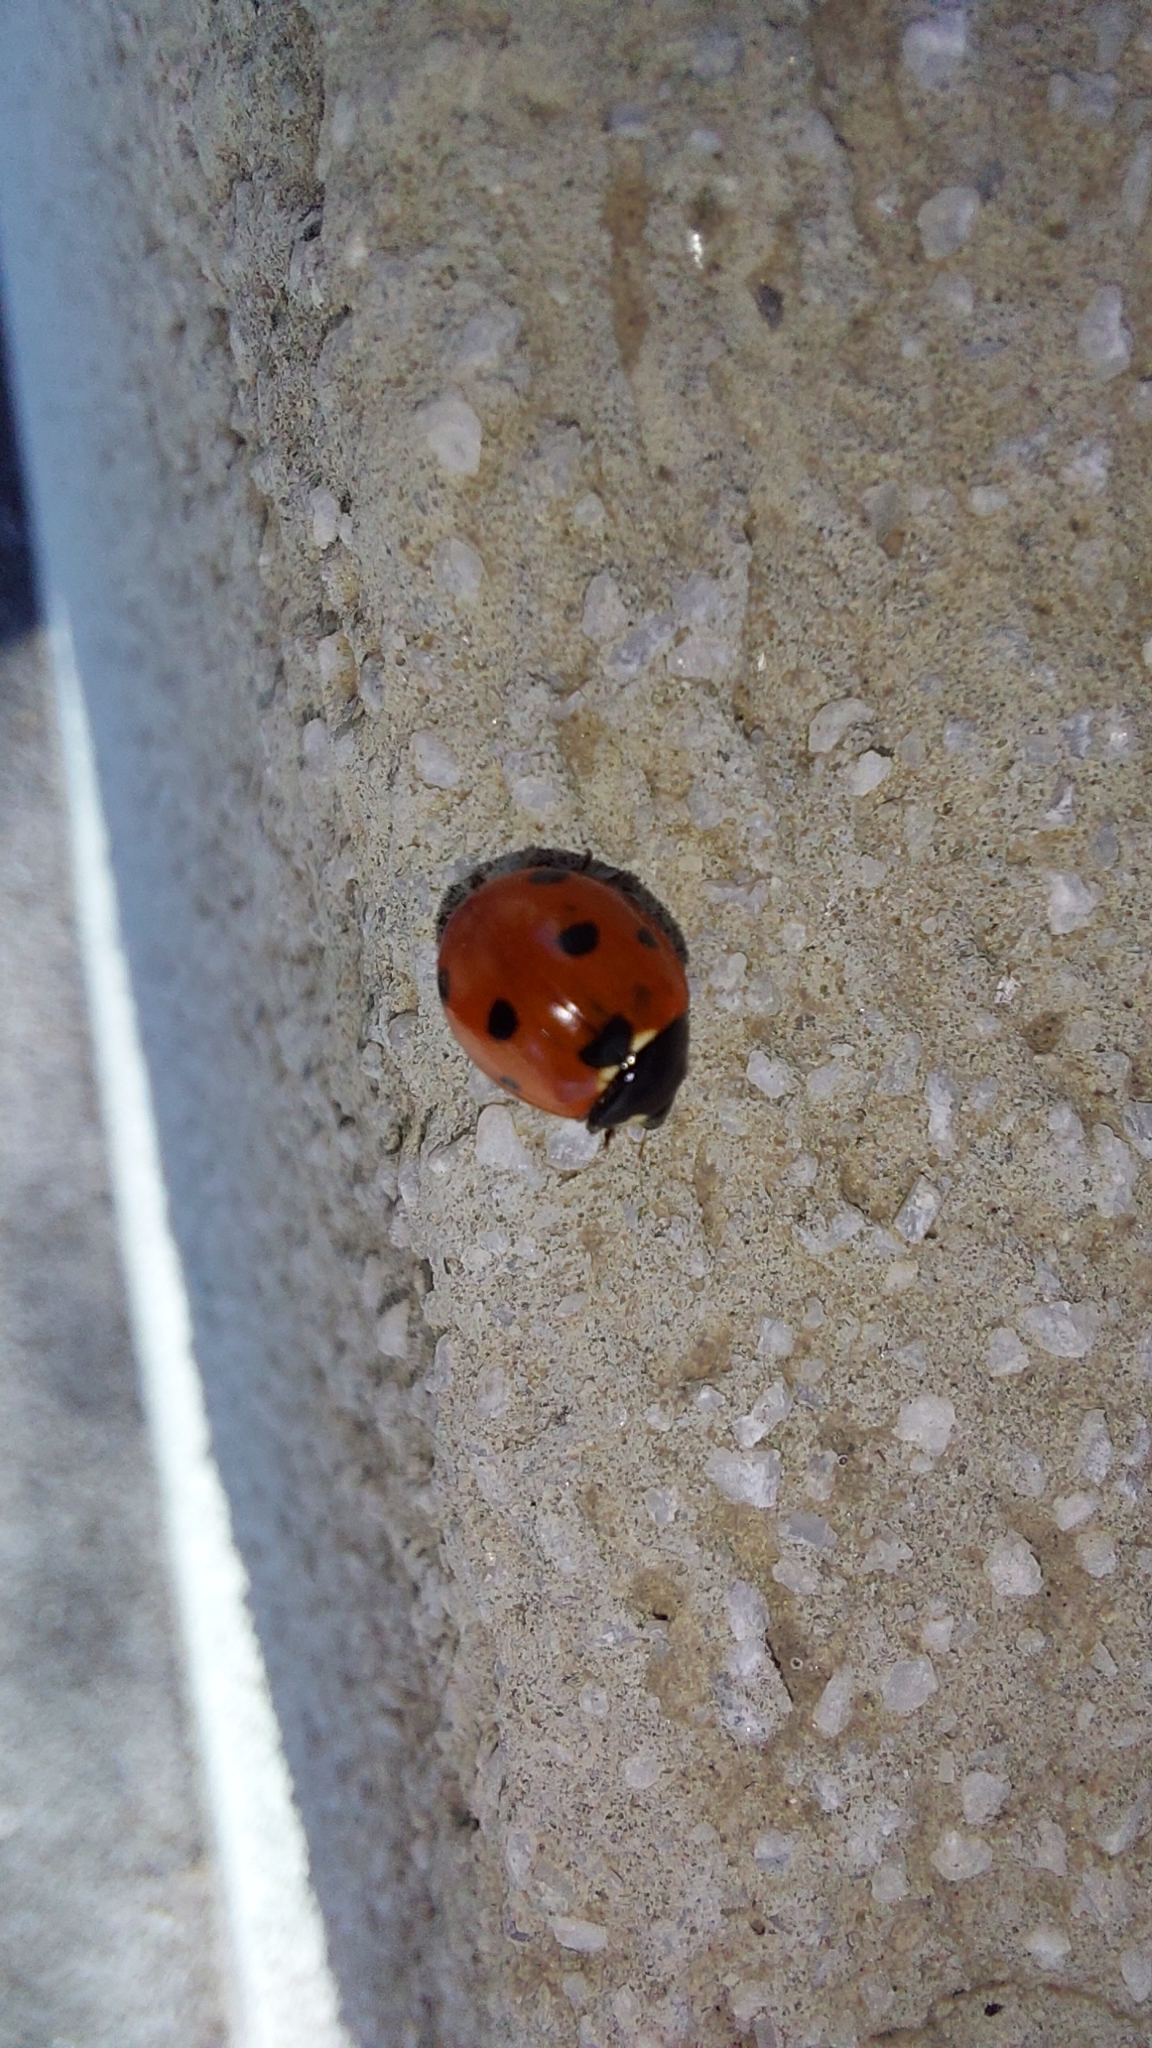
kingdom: Animalia
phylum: Arthropoda
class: Insecta
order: Coleoptera
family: Coccinellidae
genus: Coccinella
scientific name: Coccinella septempunctata
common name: Sevenspotted lady beetle
